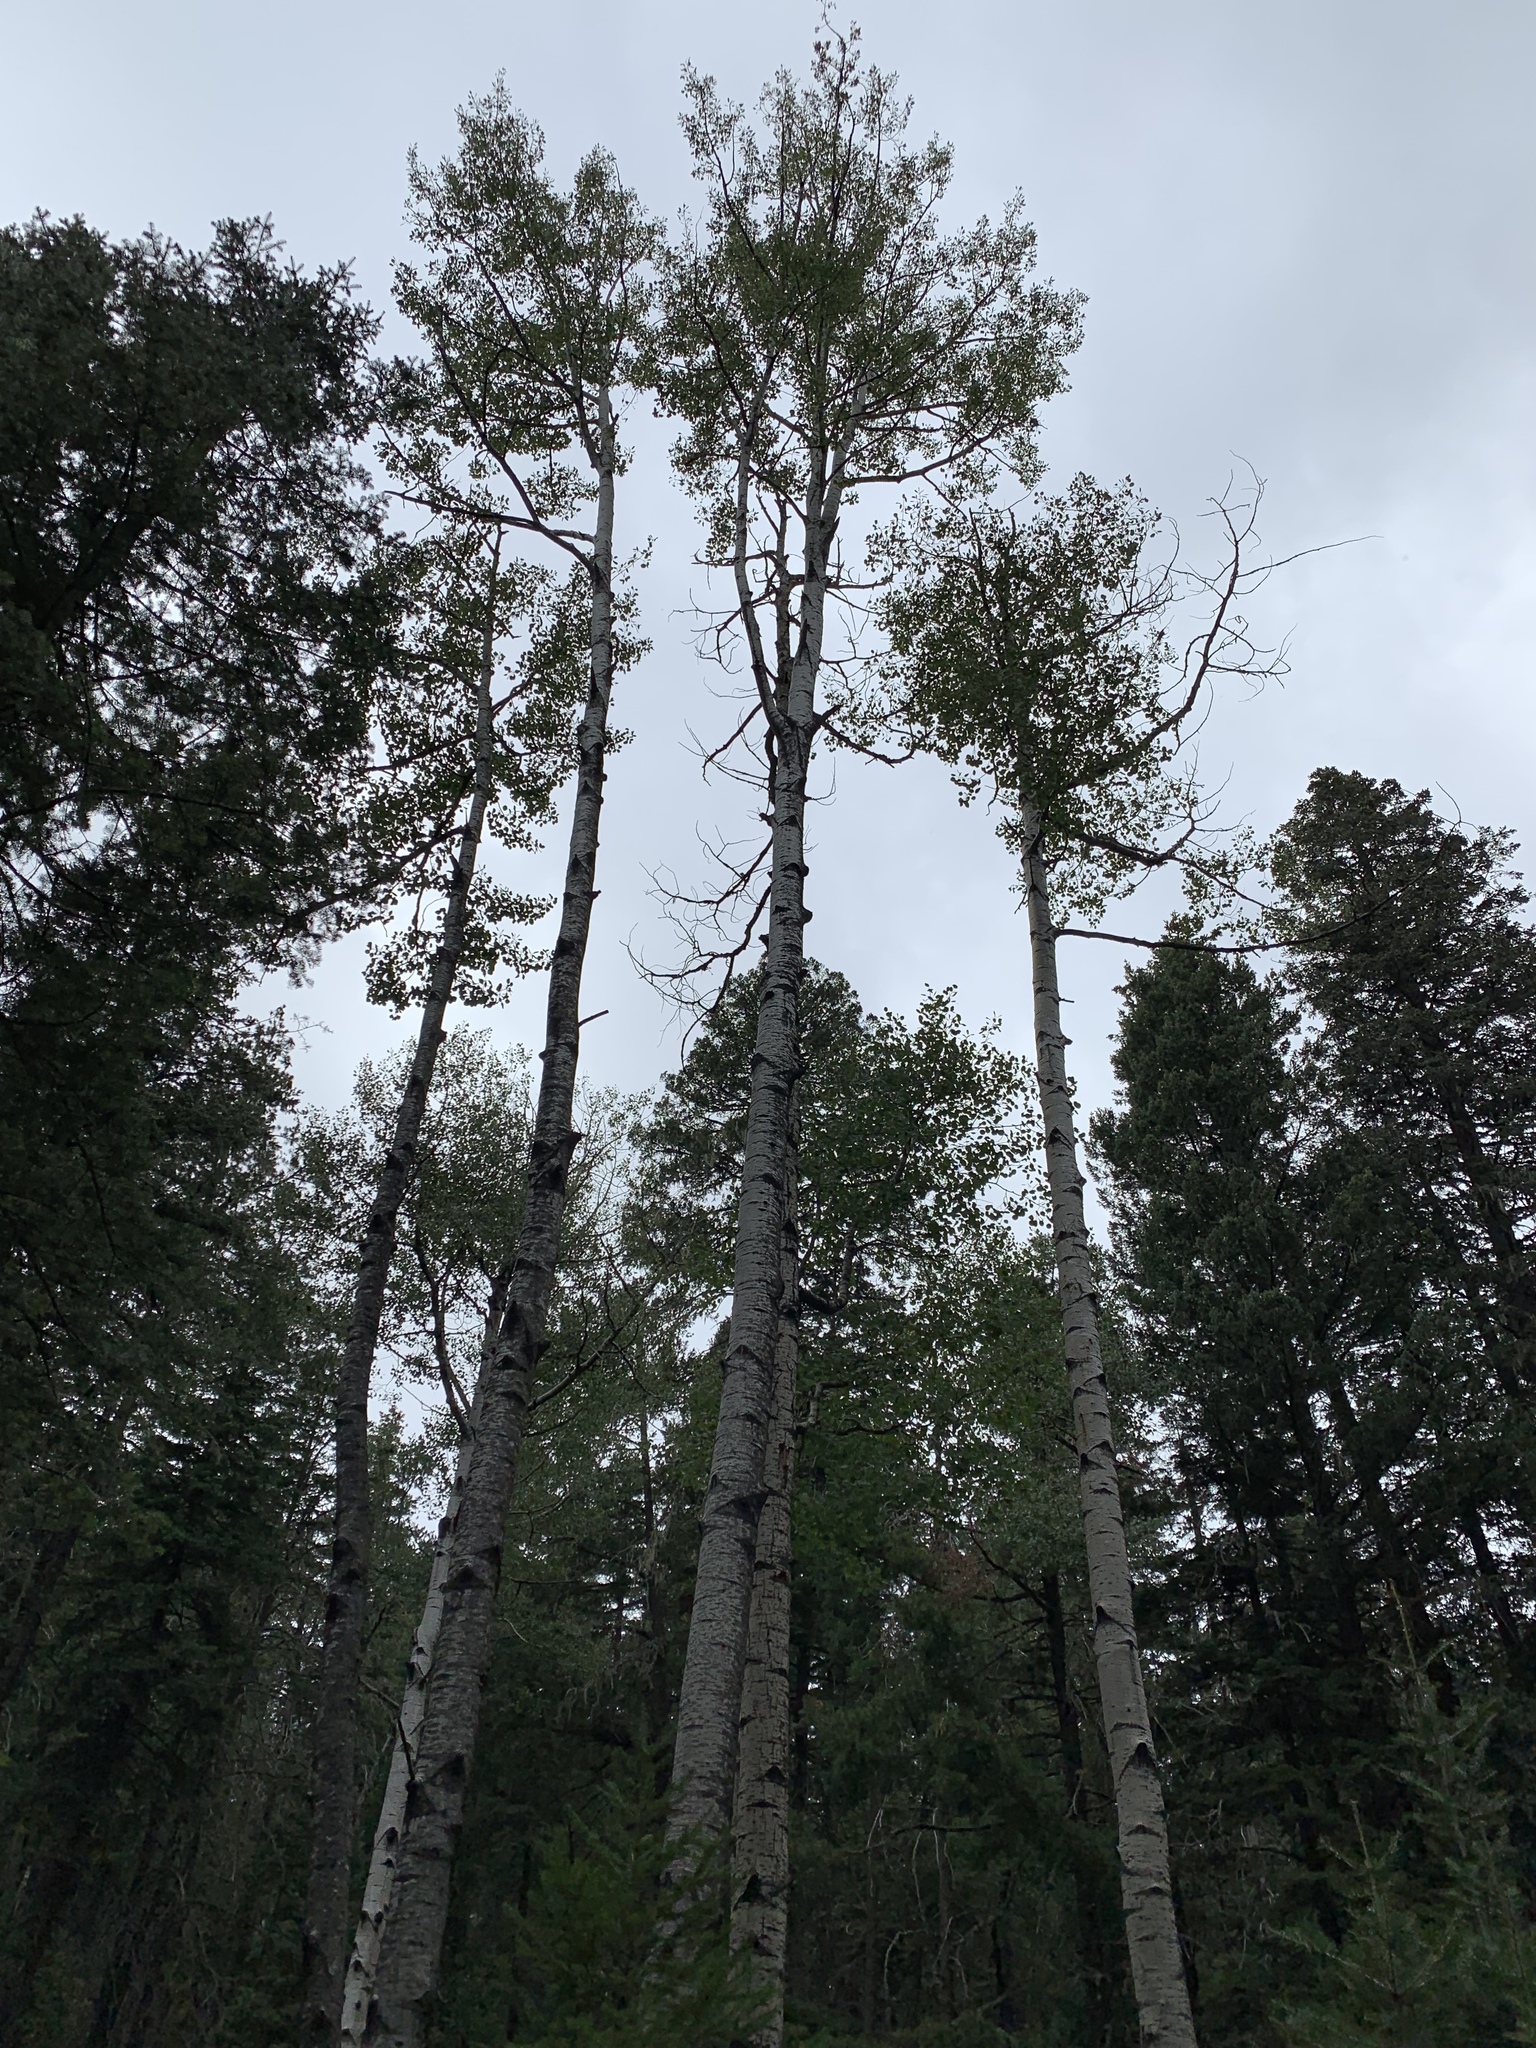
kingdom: Plantae
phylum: Tracheophyta
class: Magnoliopsida
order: Malpighiales
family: Salicaceae
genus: Populus
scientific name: Populus tremuloides
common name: Quaking aspen
